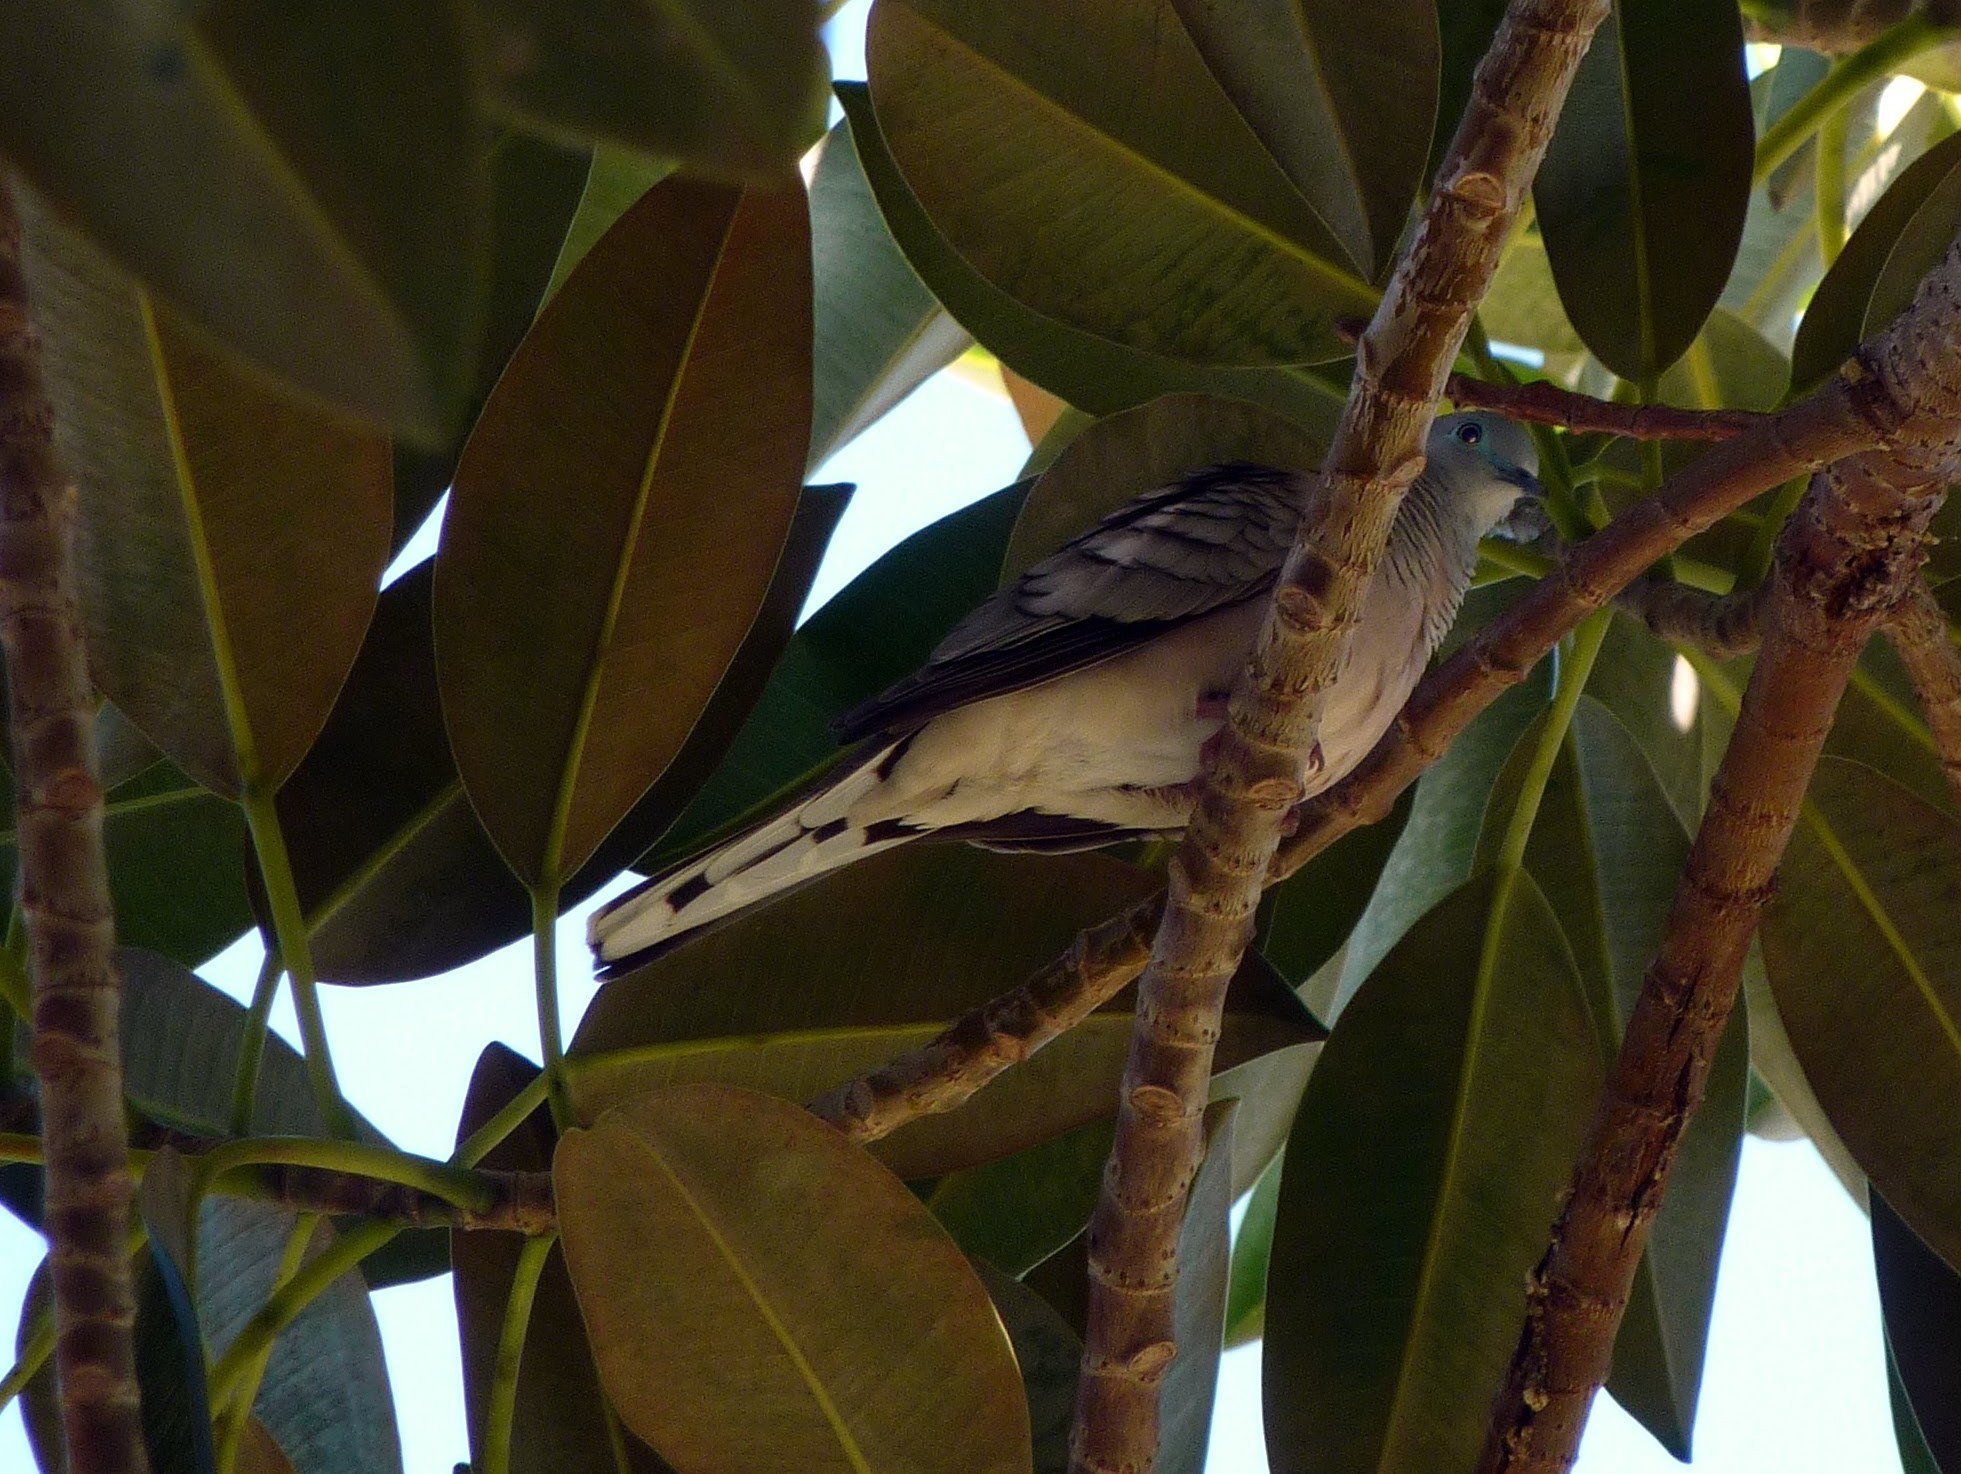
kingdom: Animalia
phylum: Chordata
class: Aves
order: Columbiformes
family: Columbidae
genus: Geopelia
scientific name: Geopelia placida
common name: Peaceful dove
